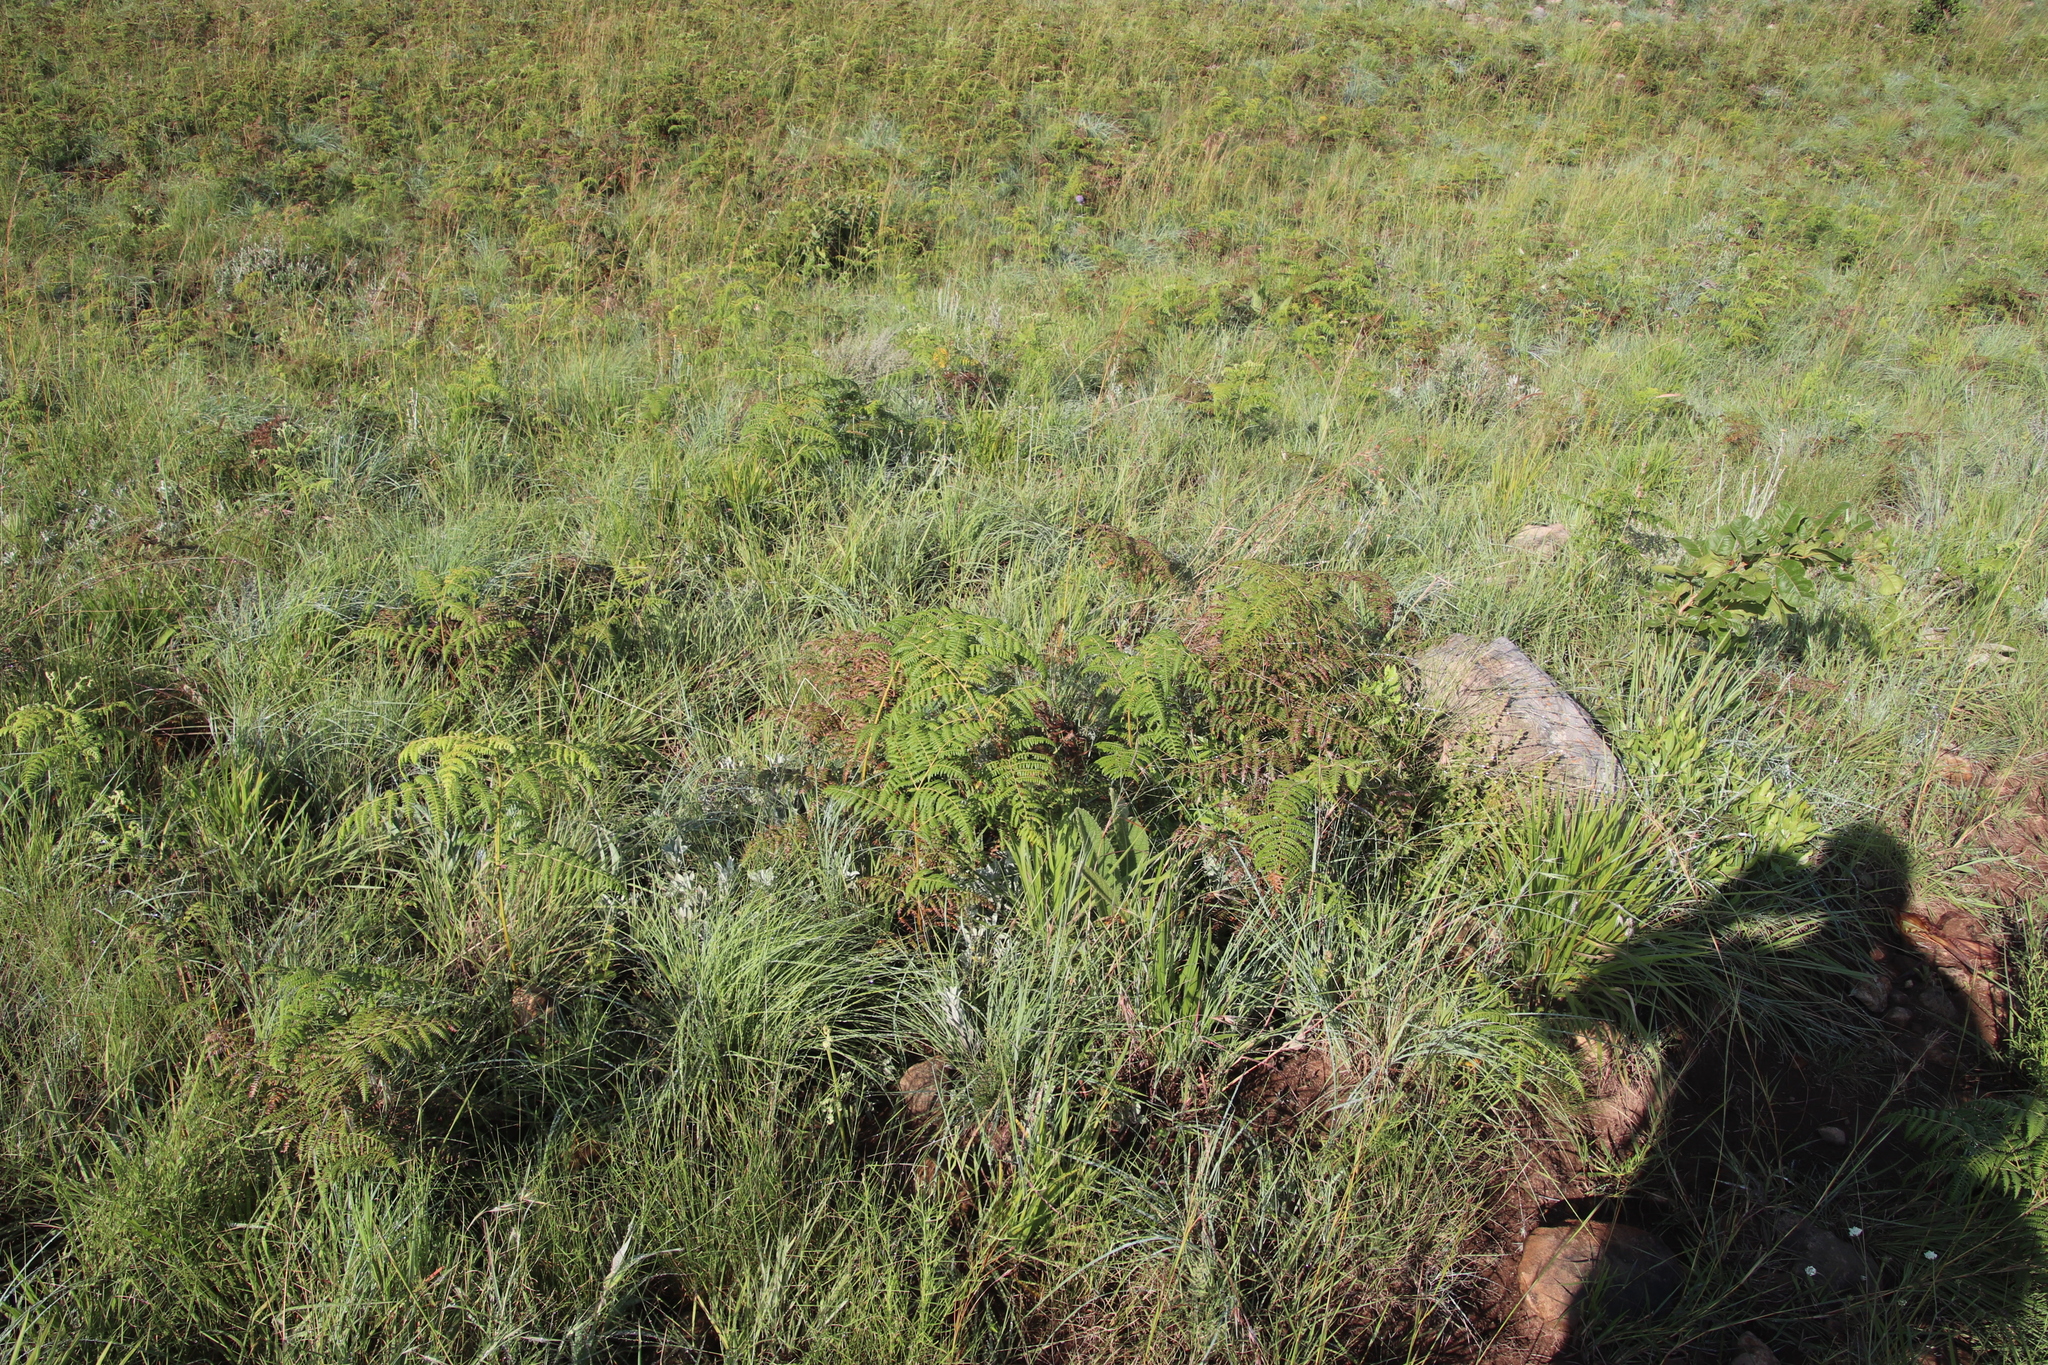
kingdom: Plantae
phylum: Tracheophyta
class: Polypodiopsida
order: Polypodiales
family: Dennstaedtiaceae
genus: Pteridium
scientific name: Pteridium aquilinum
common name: Bracken
